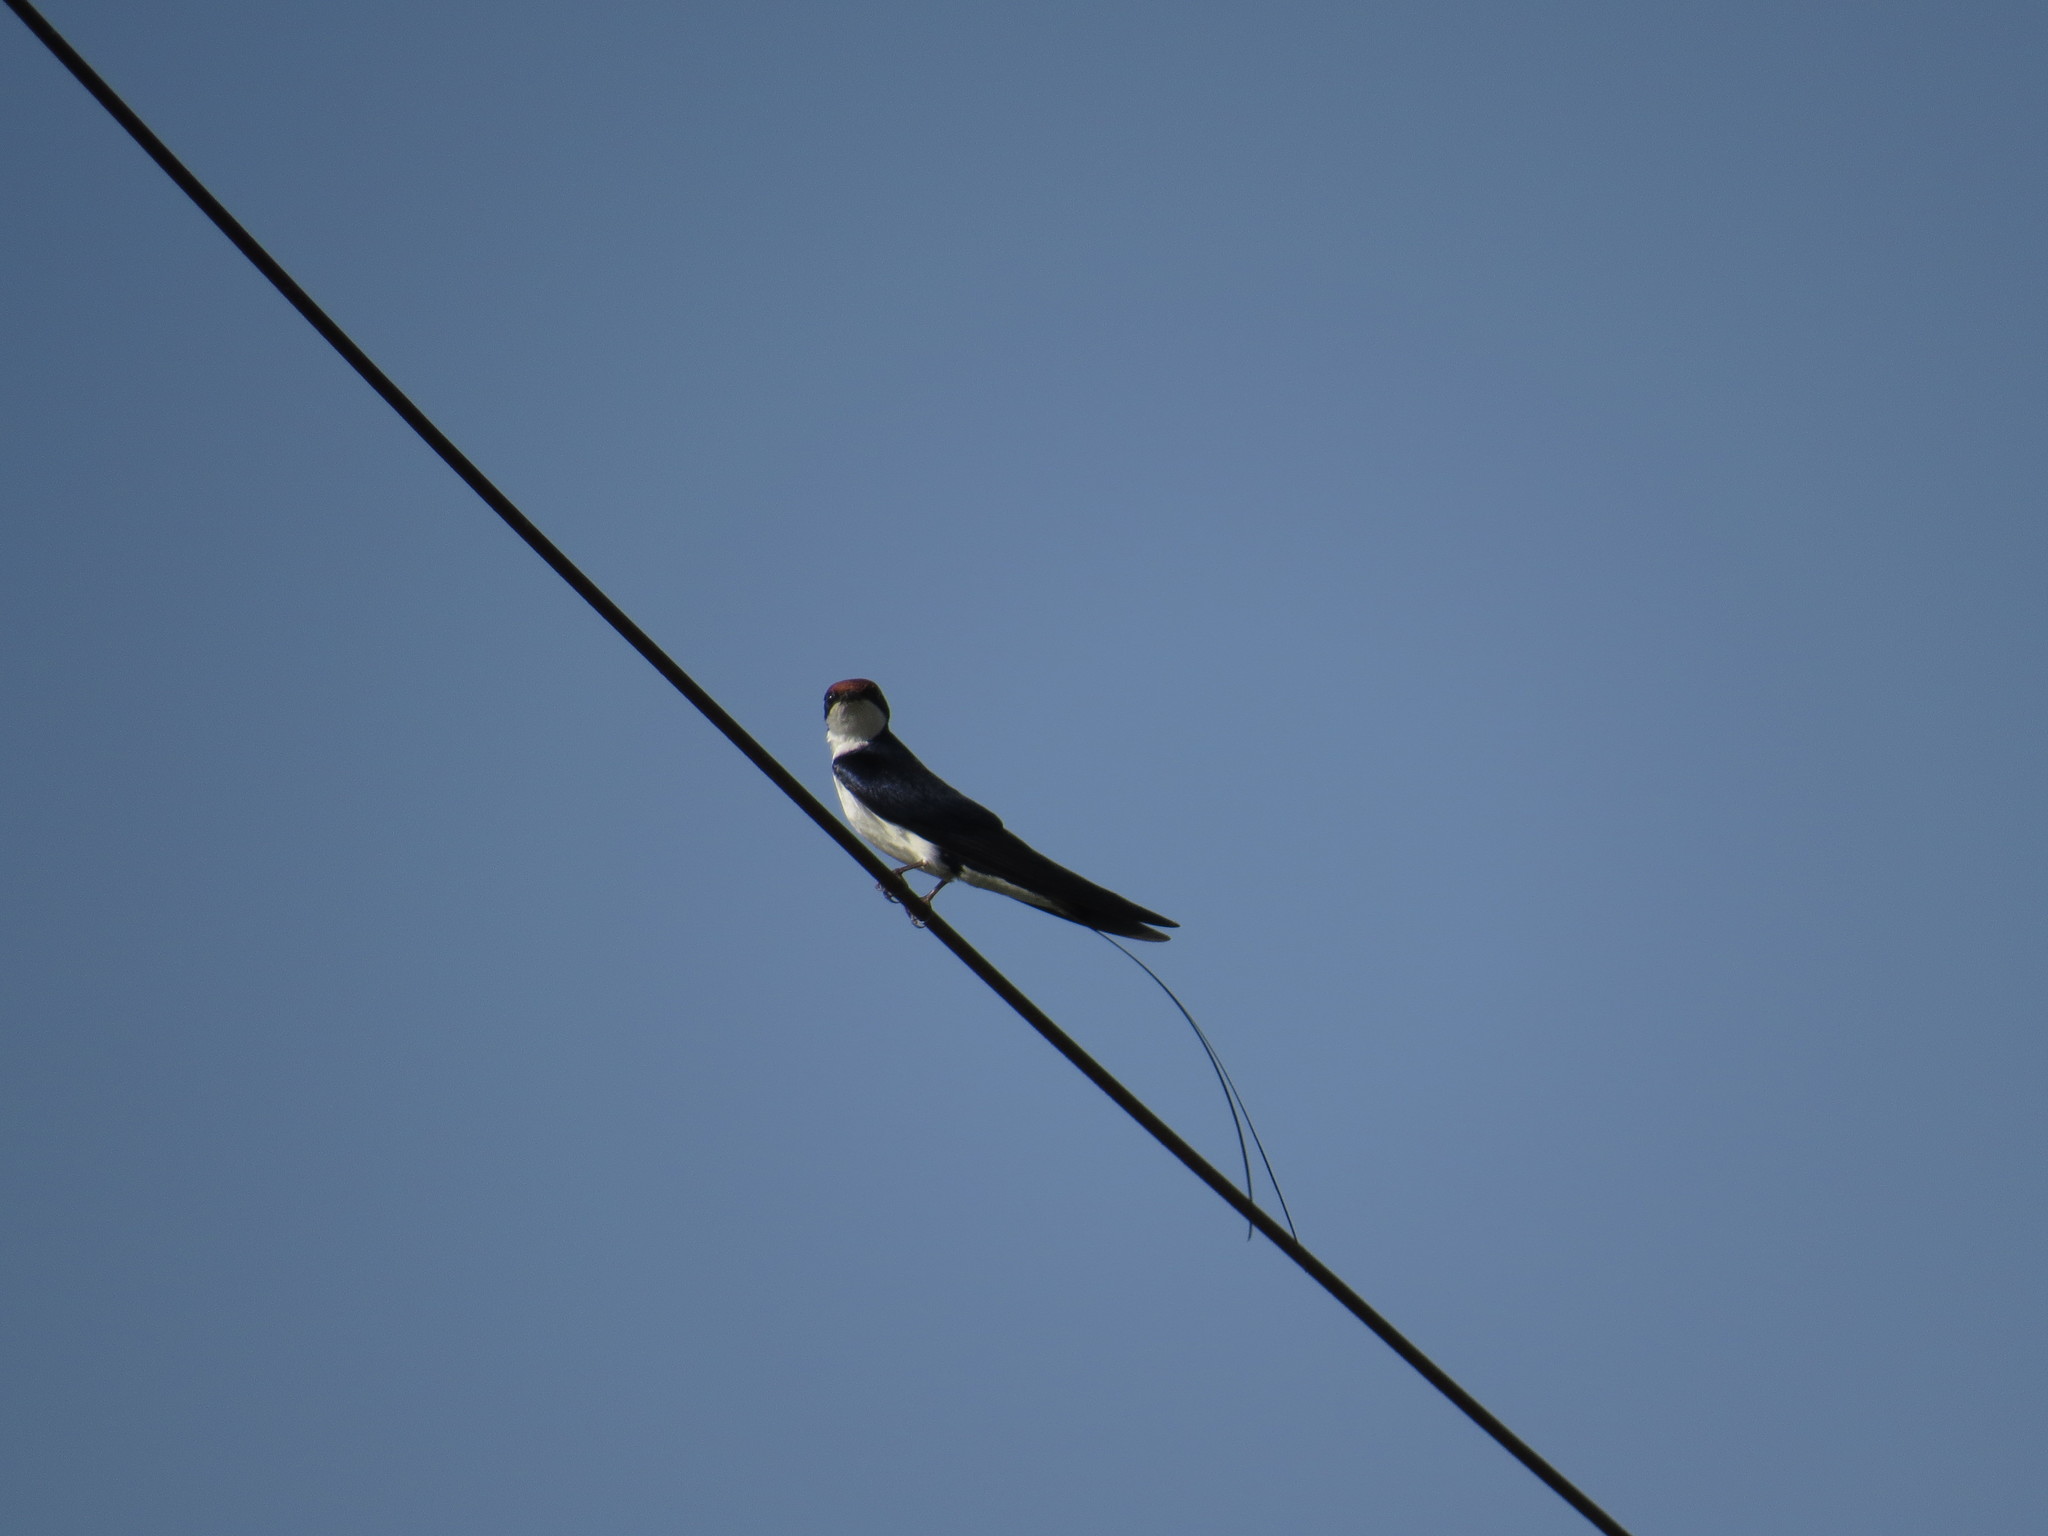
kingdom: Animalia
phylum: Chordata
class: Aves
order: Passeriformes
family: Hirundinidae
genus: Hirundo
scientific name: Hirundo smithii
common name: Wire-tailed swallow
